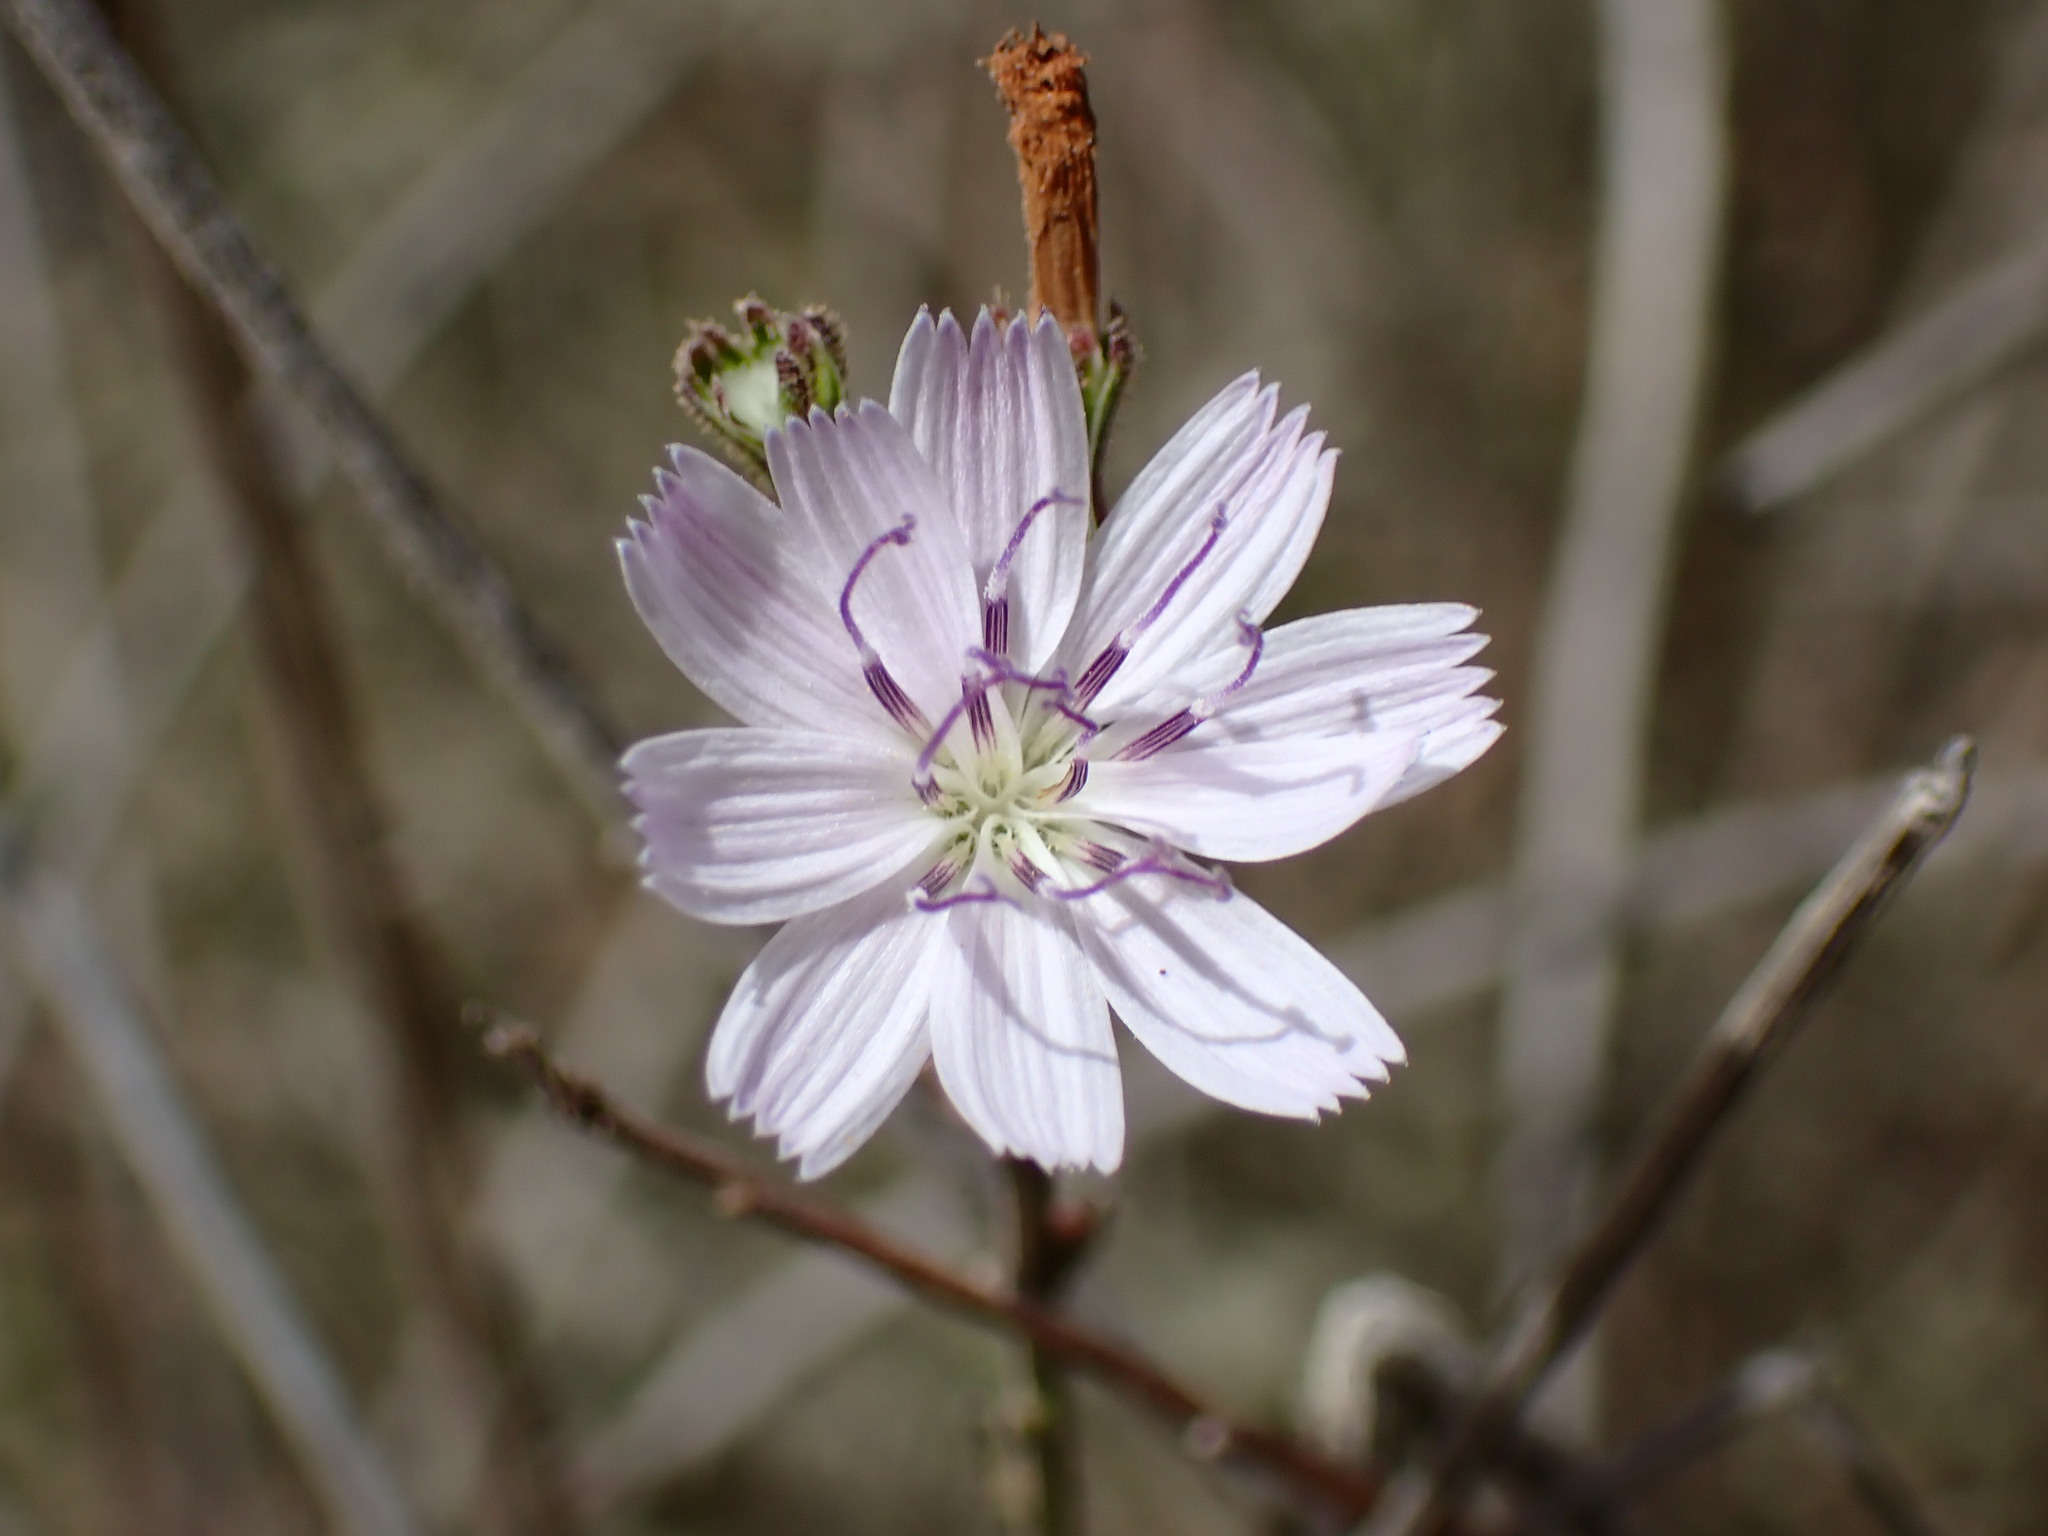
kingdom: Plantae
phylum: Tracheophyta
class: Magnoliopsida
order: Asterales
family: Asteraceae
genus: Stephanomeria
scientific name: Stephanomeria diegensis
